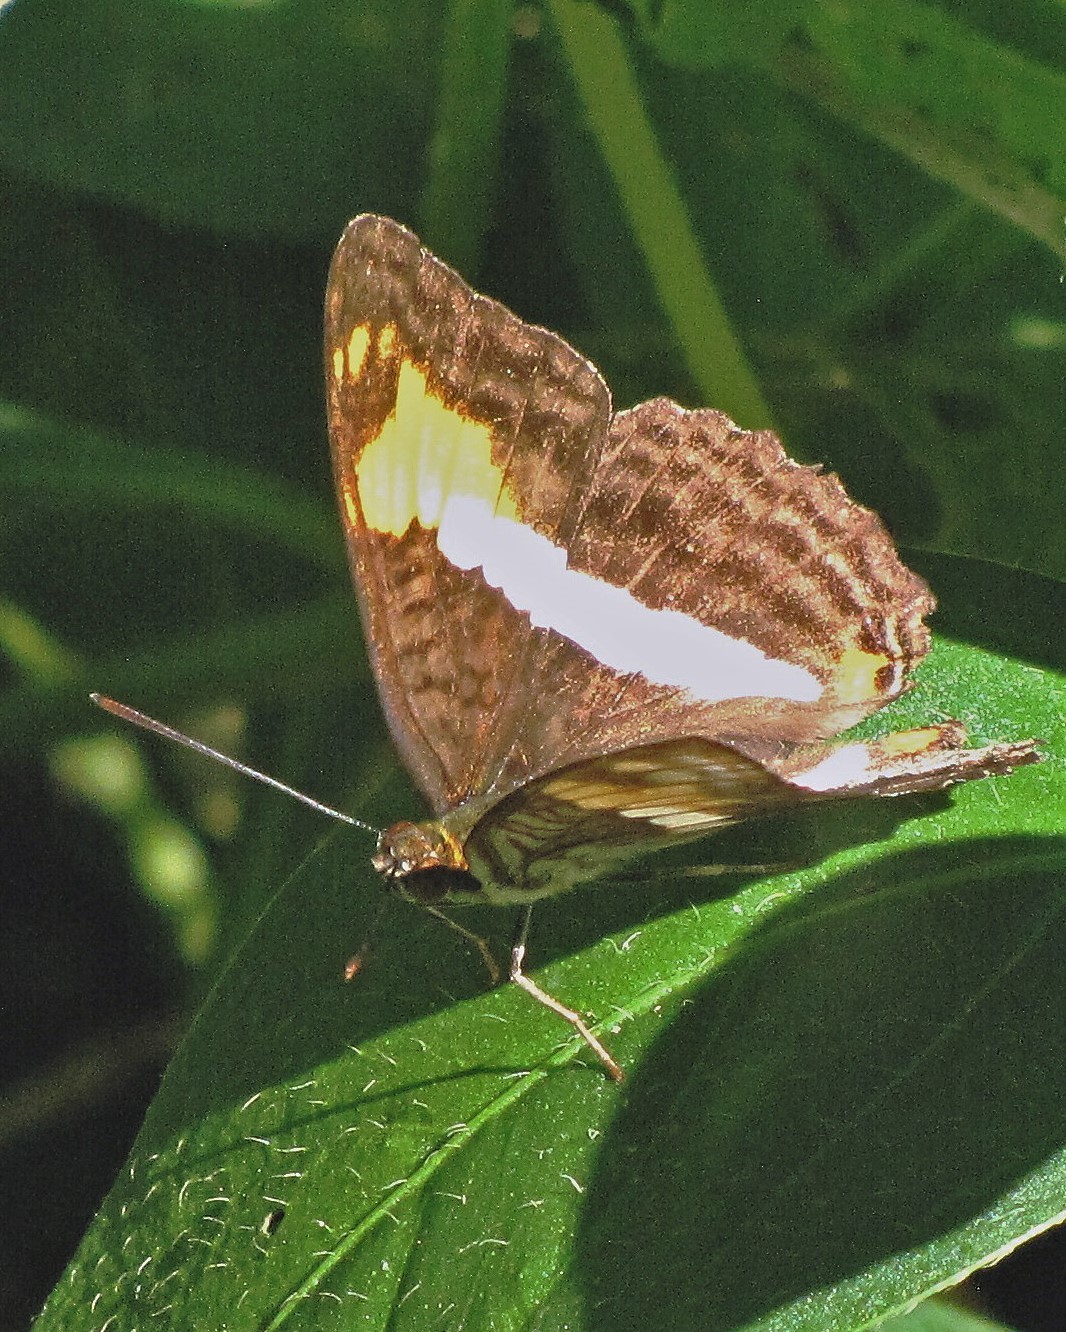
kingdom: Animalia
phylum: Arthropoda
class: Insecta
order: Lepidoptera
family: Nymphalidae
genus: Limenitis
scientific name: Limenitis malea
